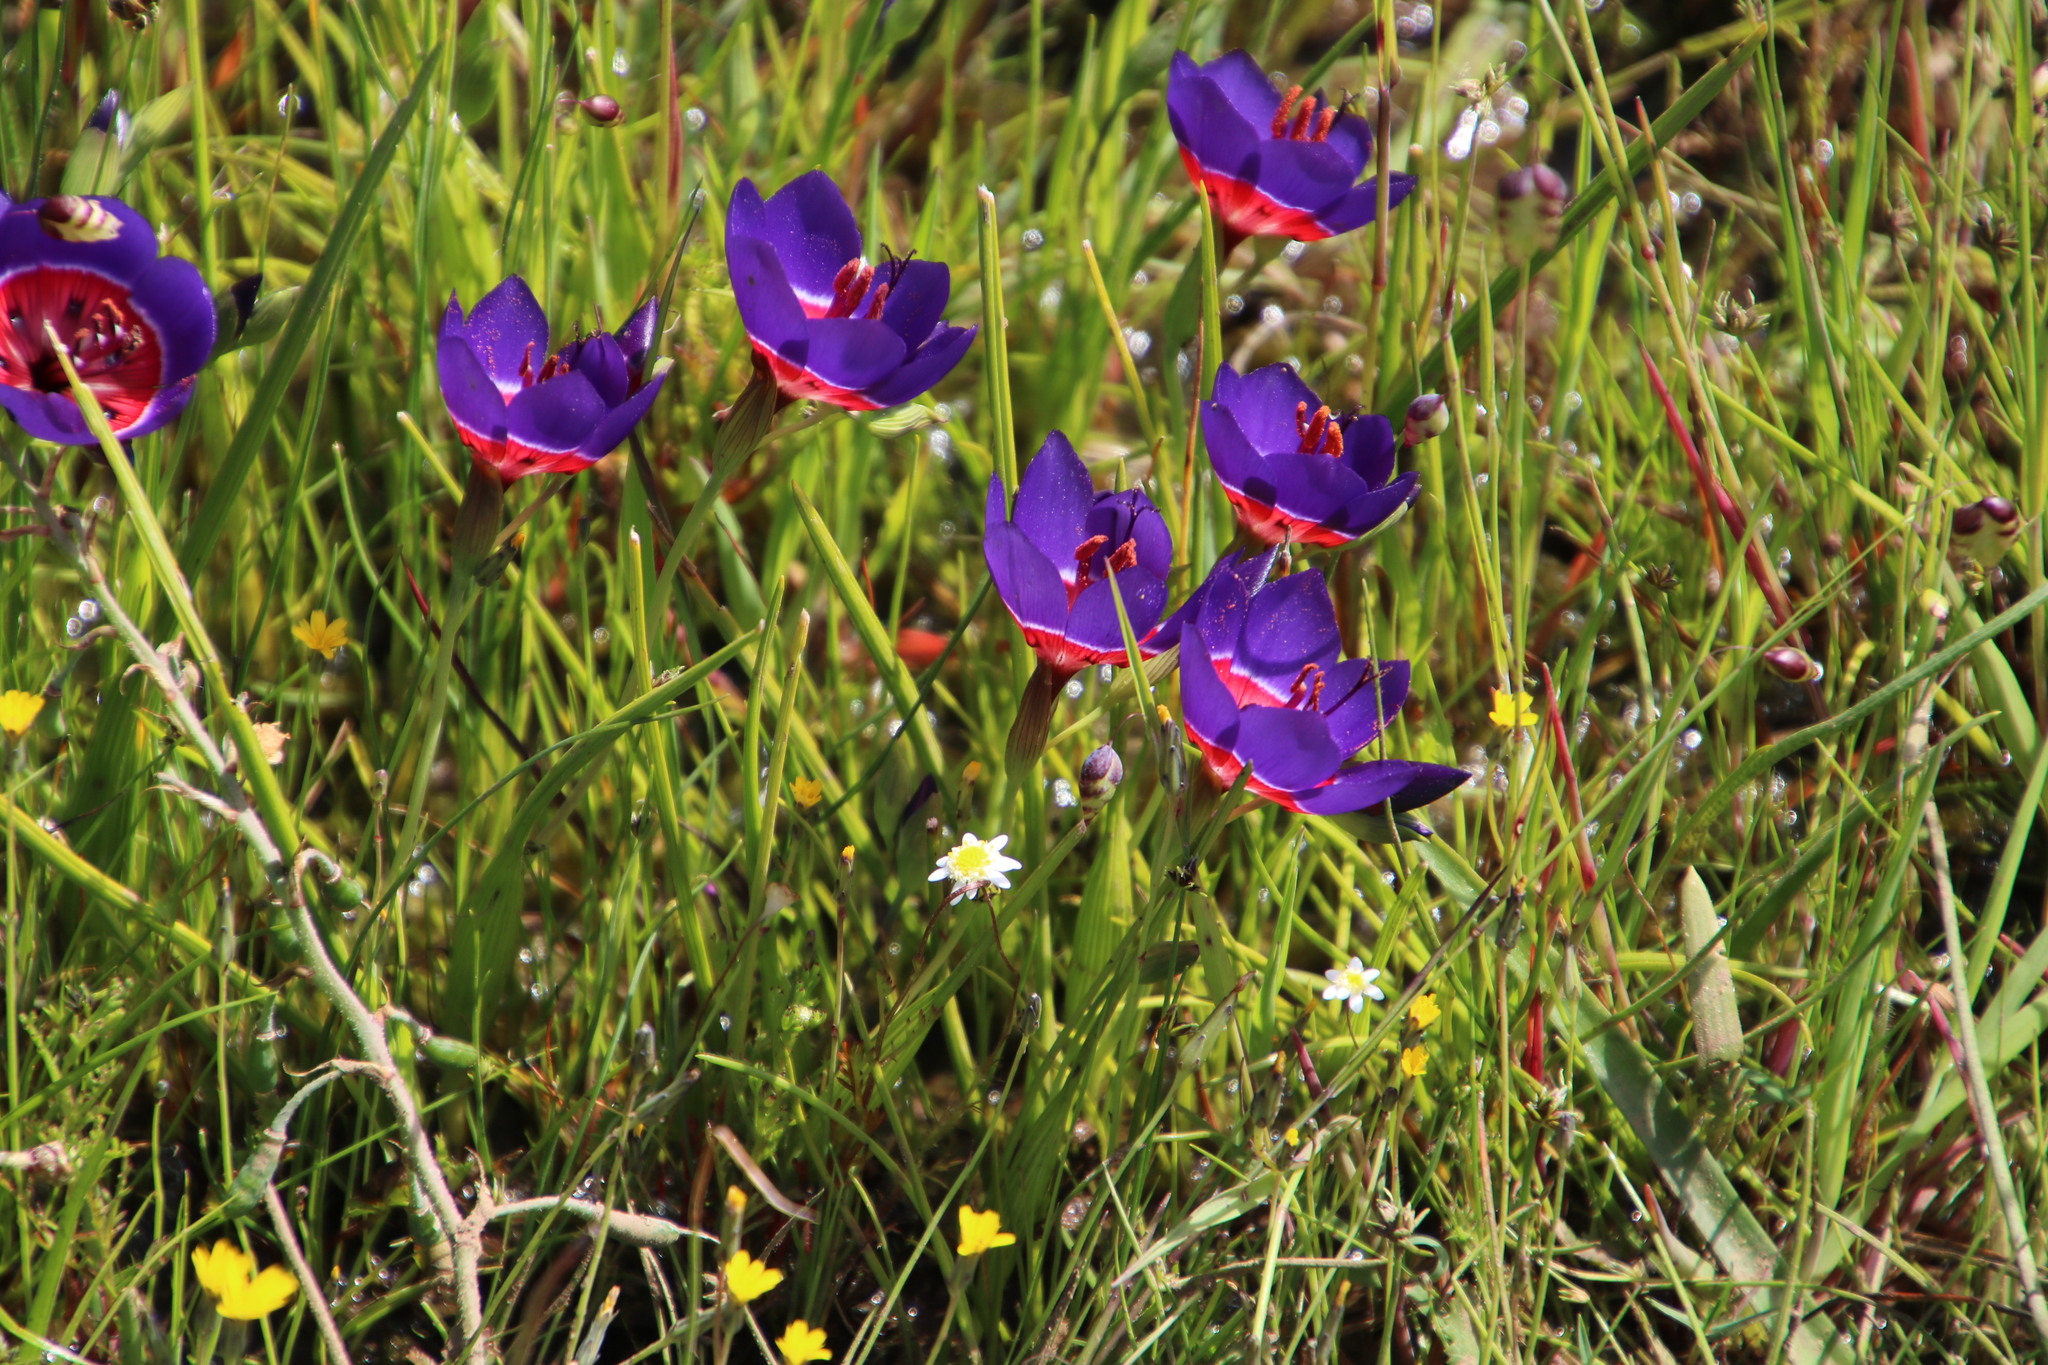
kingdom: Plantae
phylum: Tracheophyta
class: Liliopsida
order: Asparagales
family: Iridaceae
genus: Geissorhiza
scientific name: Geissorhiza radians
